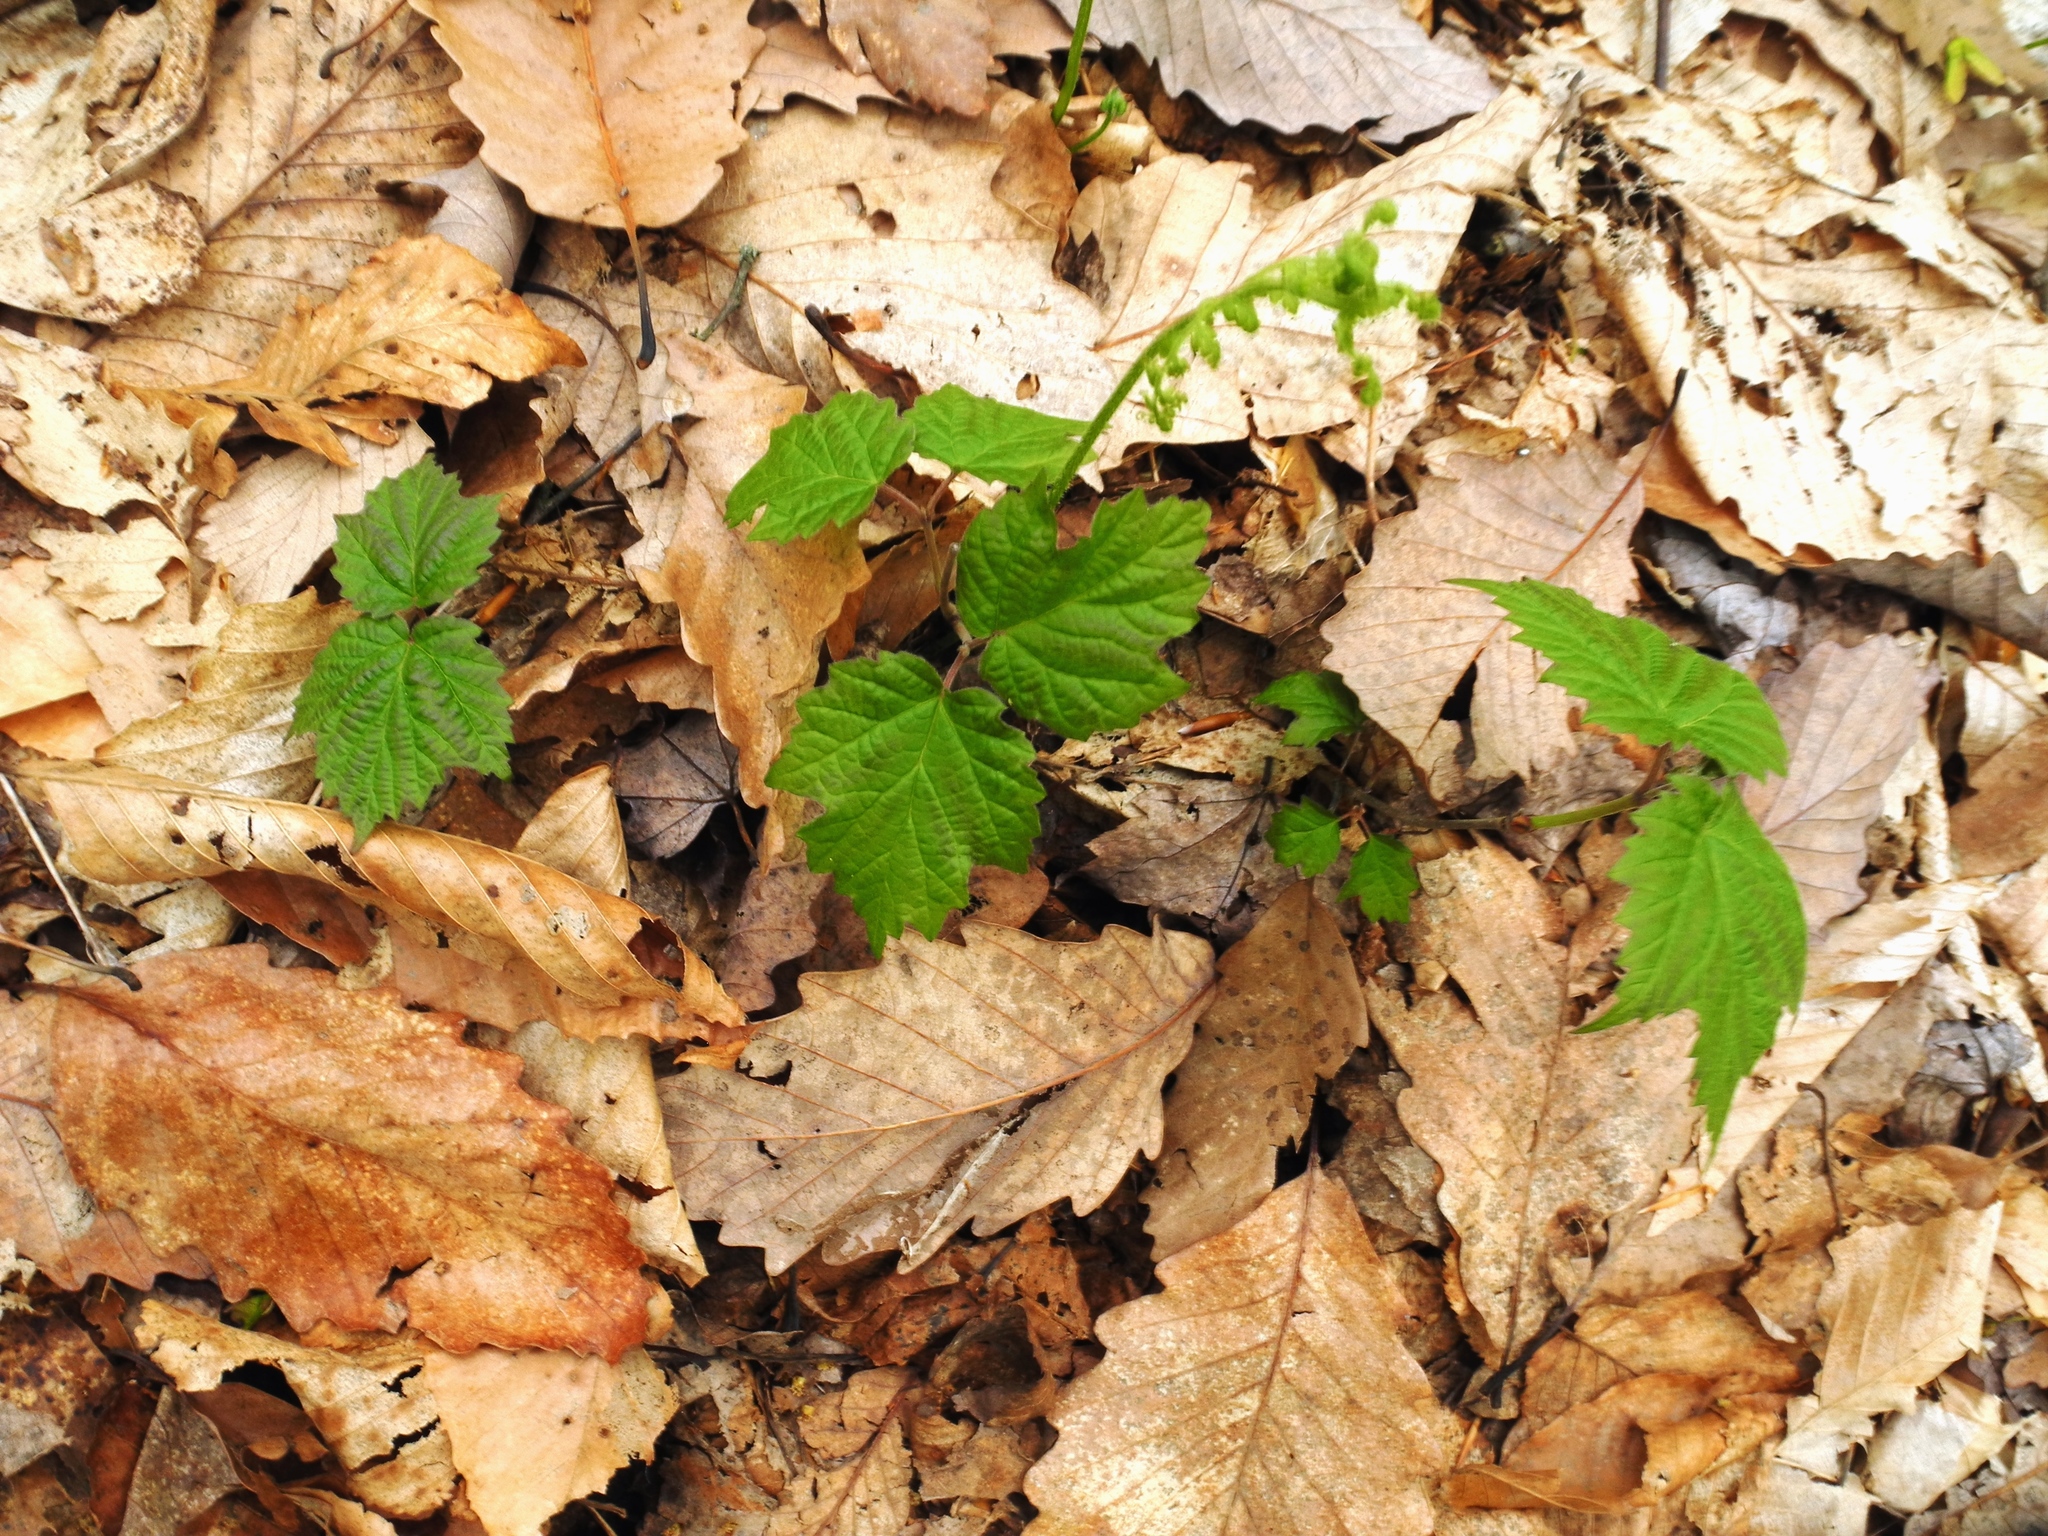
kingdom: Plantae
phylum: Tracheophyta
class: Magnoliopsida
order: Dipsacales
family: Viburnaceae
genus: Viburnum
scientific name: Viburnum acerifolium
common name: Dockmackie
